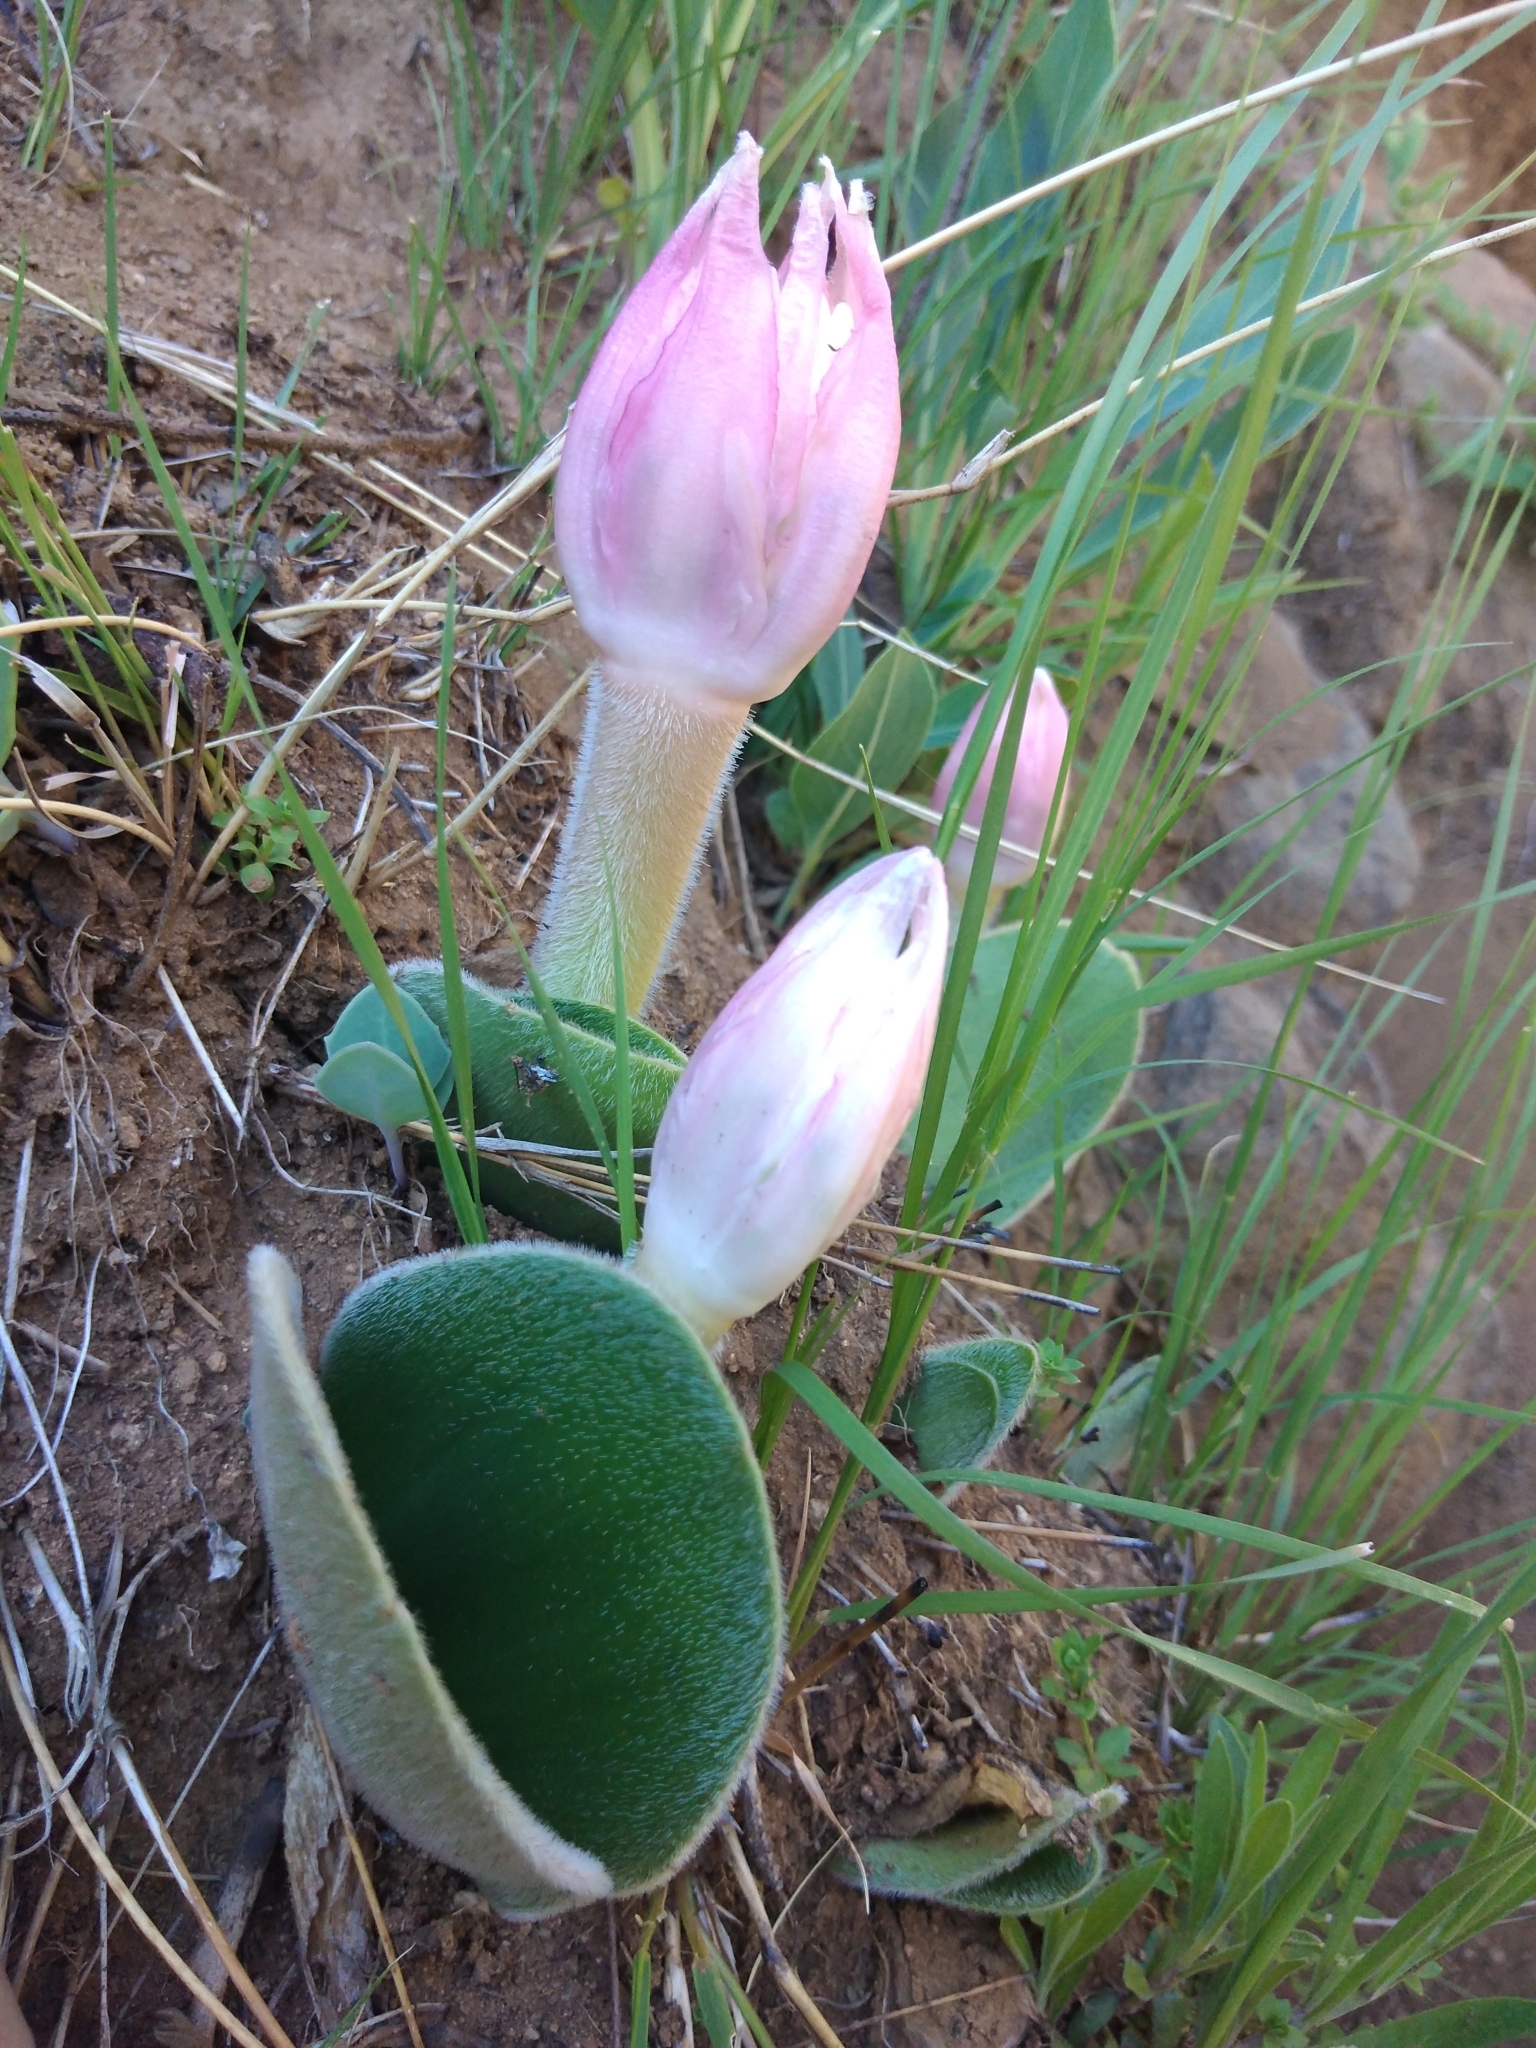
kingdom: Plantae
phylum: Tracheophyta
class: Liliopsida
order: Asparagales
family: Amaryllidaceae
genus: Haemanthus
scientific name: Haemanthus humilis
